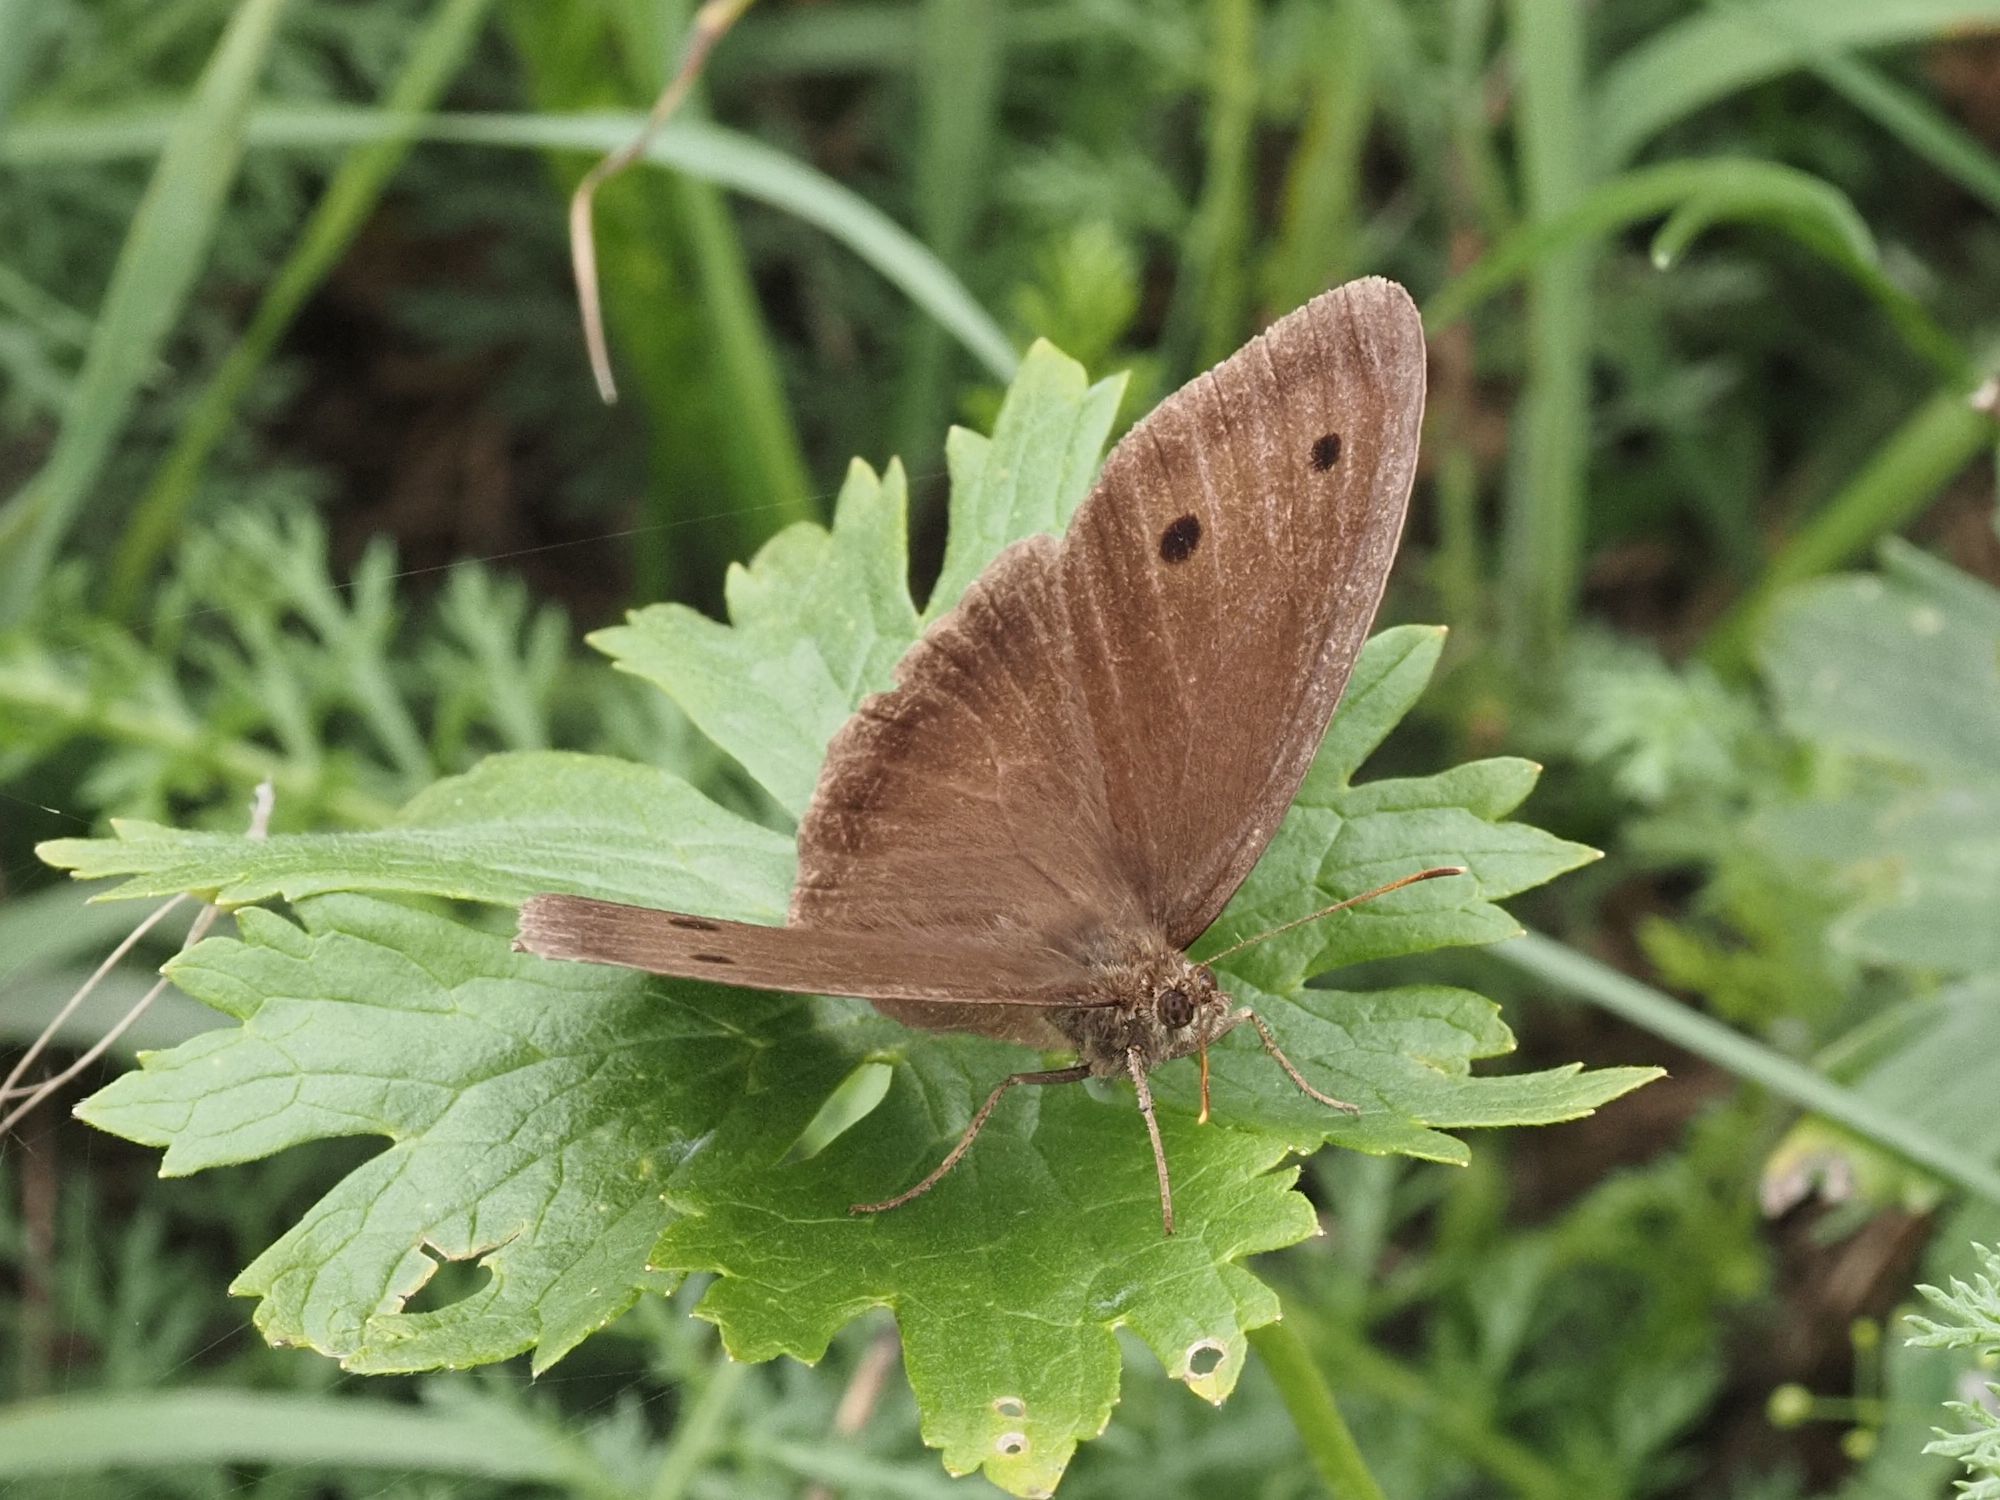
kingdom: Animalia
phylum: Arthropoda
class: Insecta
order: Lepidoptera
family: Nymphalidae
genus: Minois
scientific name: Minois dryas
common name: Dryad
